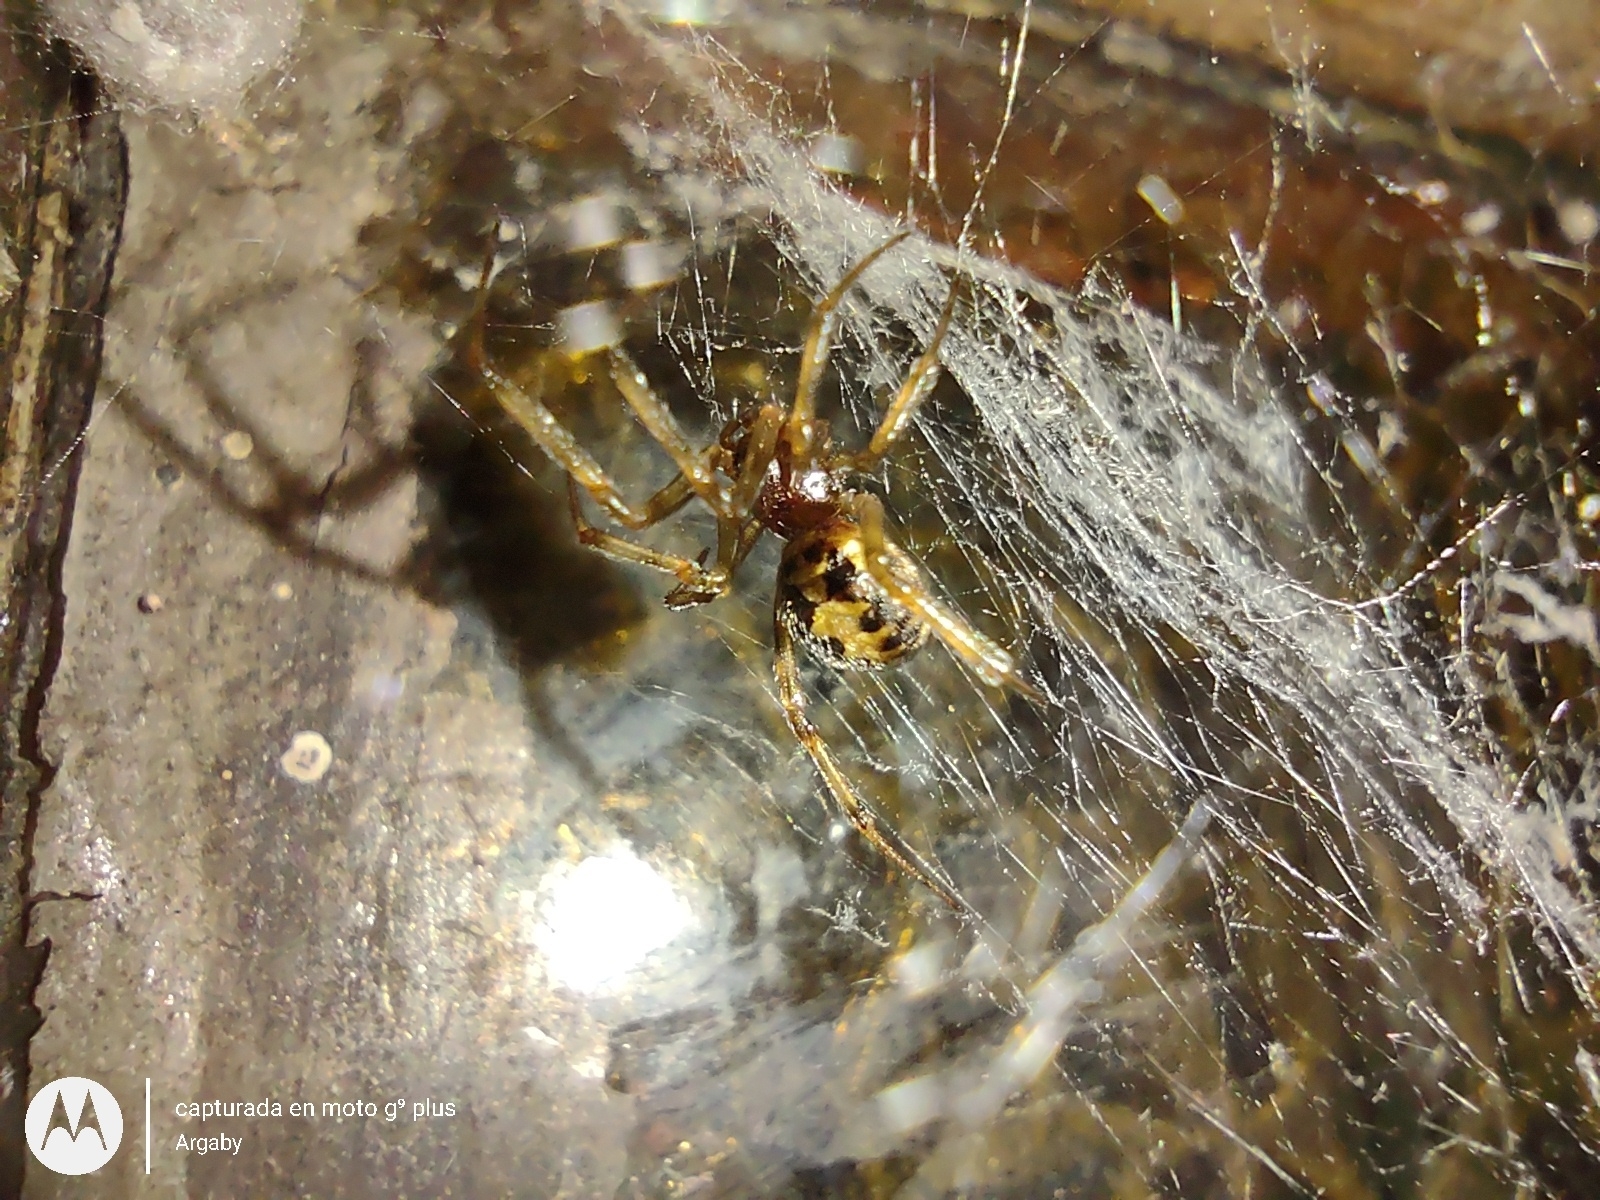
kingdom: Animalia
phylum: Arthropoda
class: Arachnida
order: Araneae
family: Theridiidae
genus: Steatoda
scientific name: Steatoda triangulosa
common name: Triangulate bud spider
